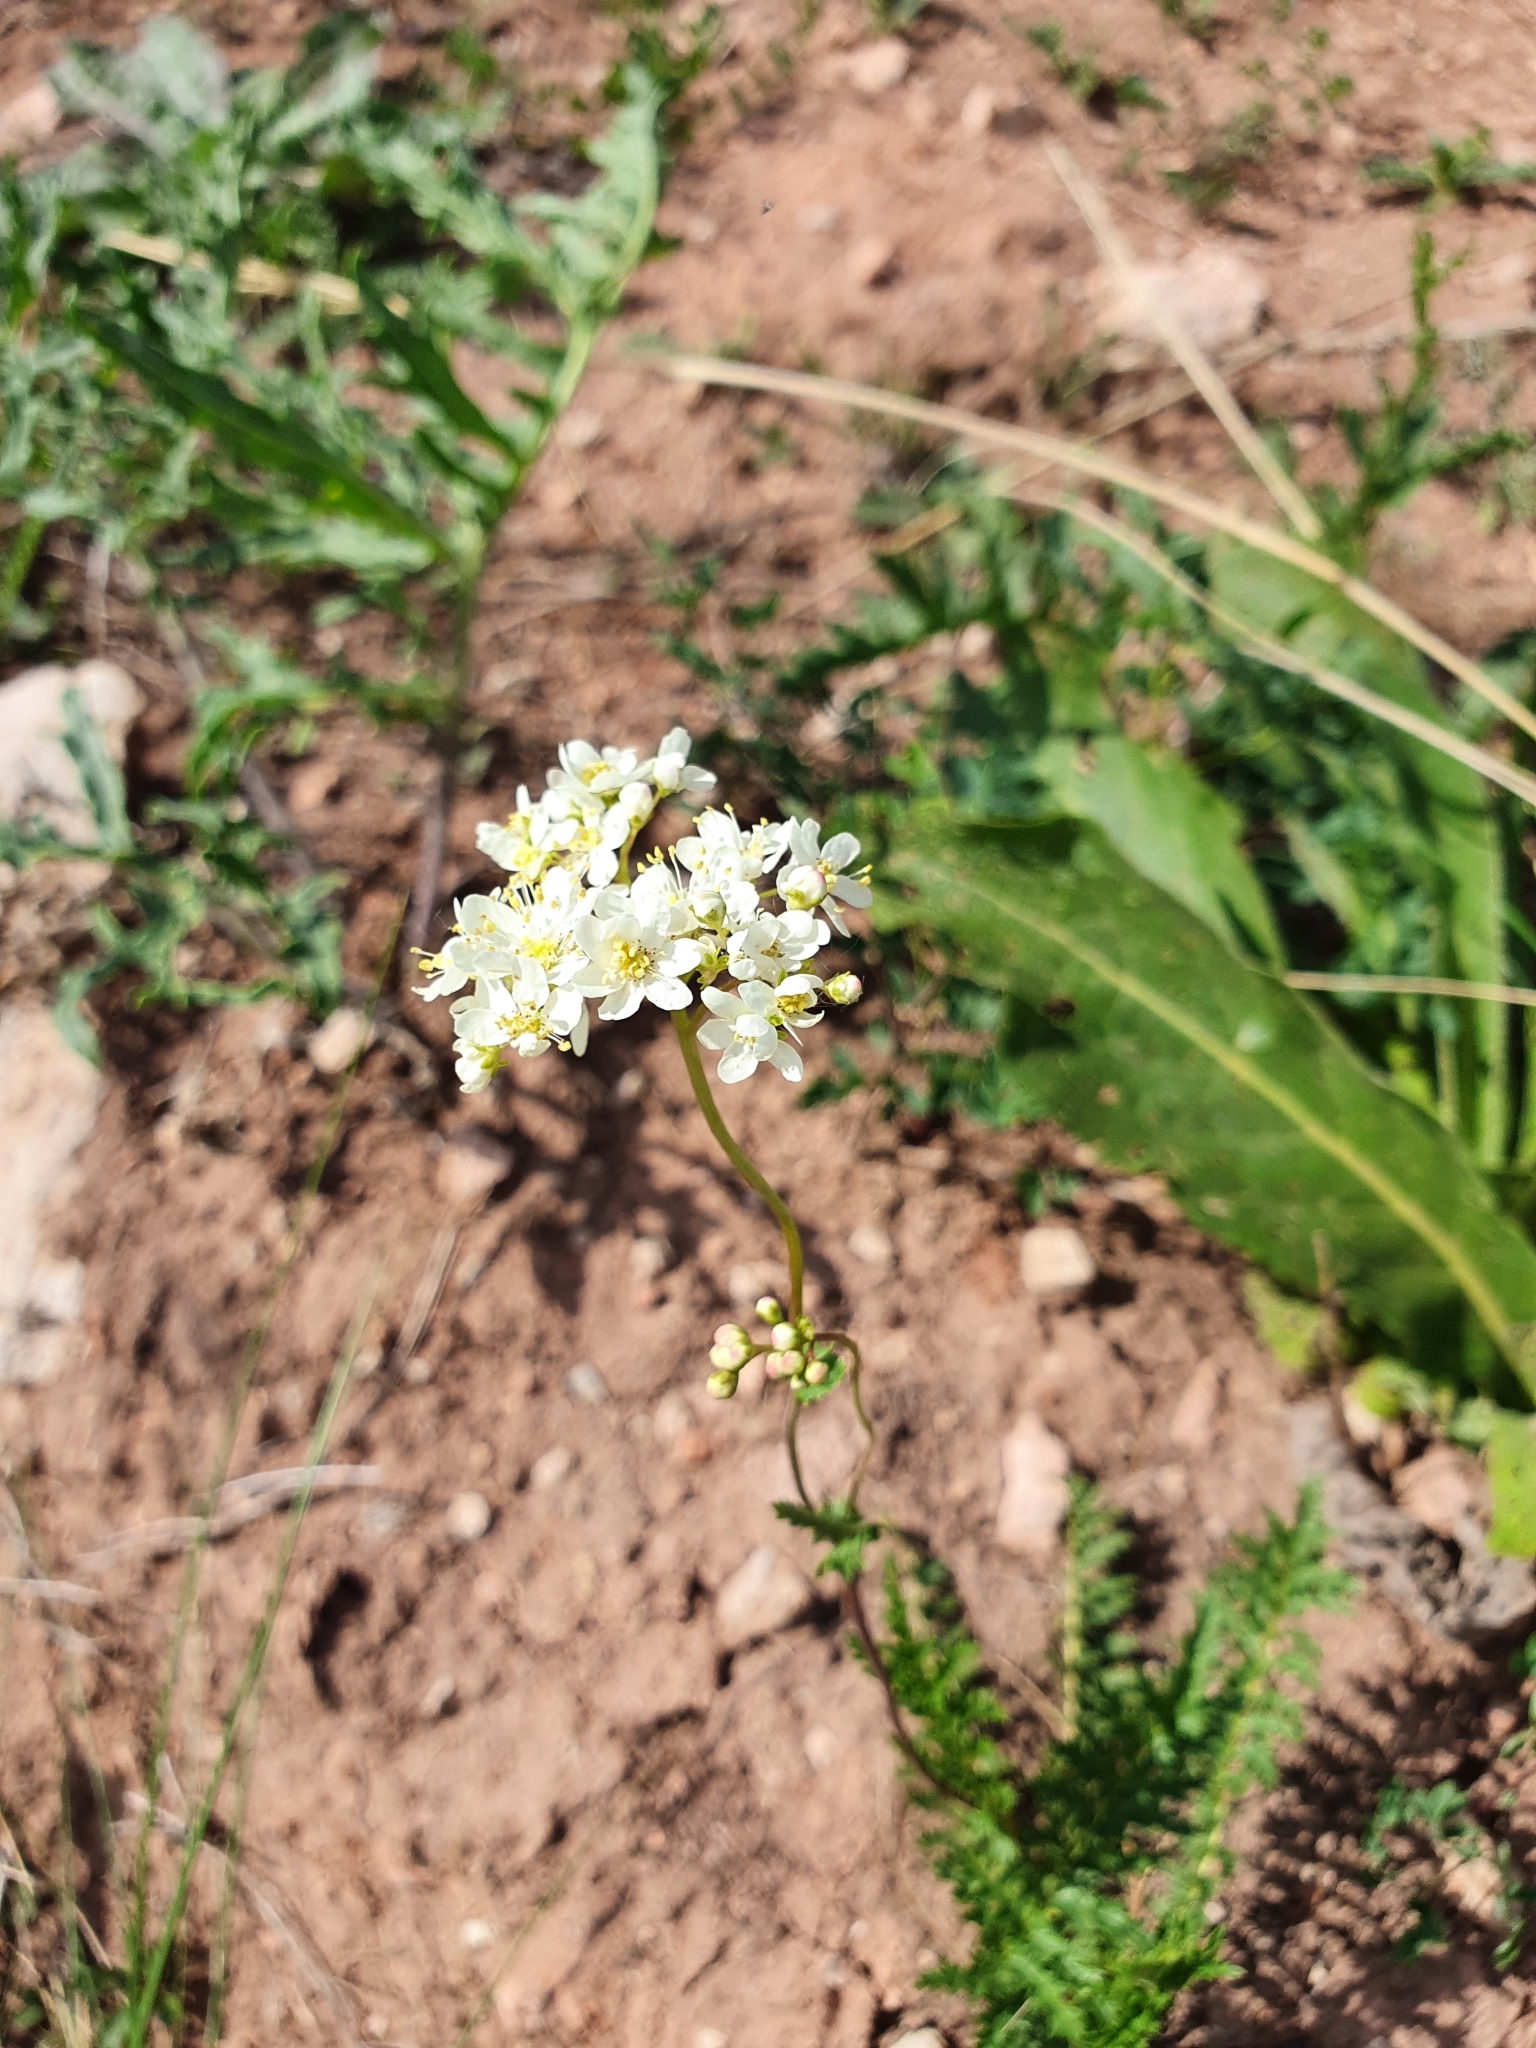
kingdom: Plantae
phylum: Tracheophyta
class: Magnoliopsida
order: Rosales
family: Rosaceae
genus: Filipendula
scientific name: Filipendula vulgaris
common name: Dropwort
